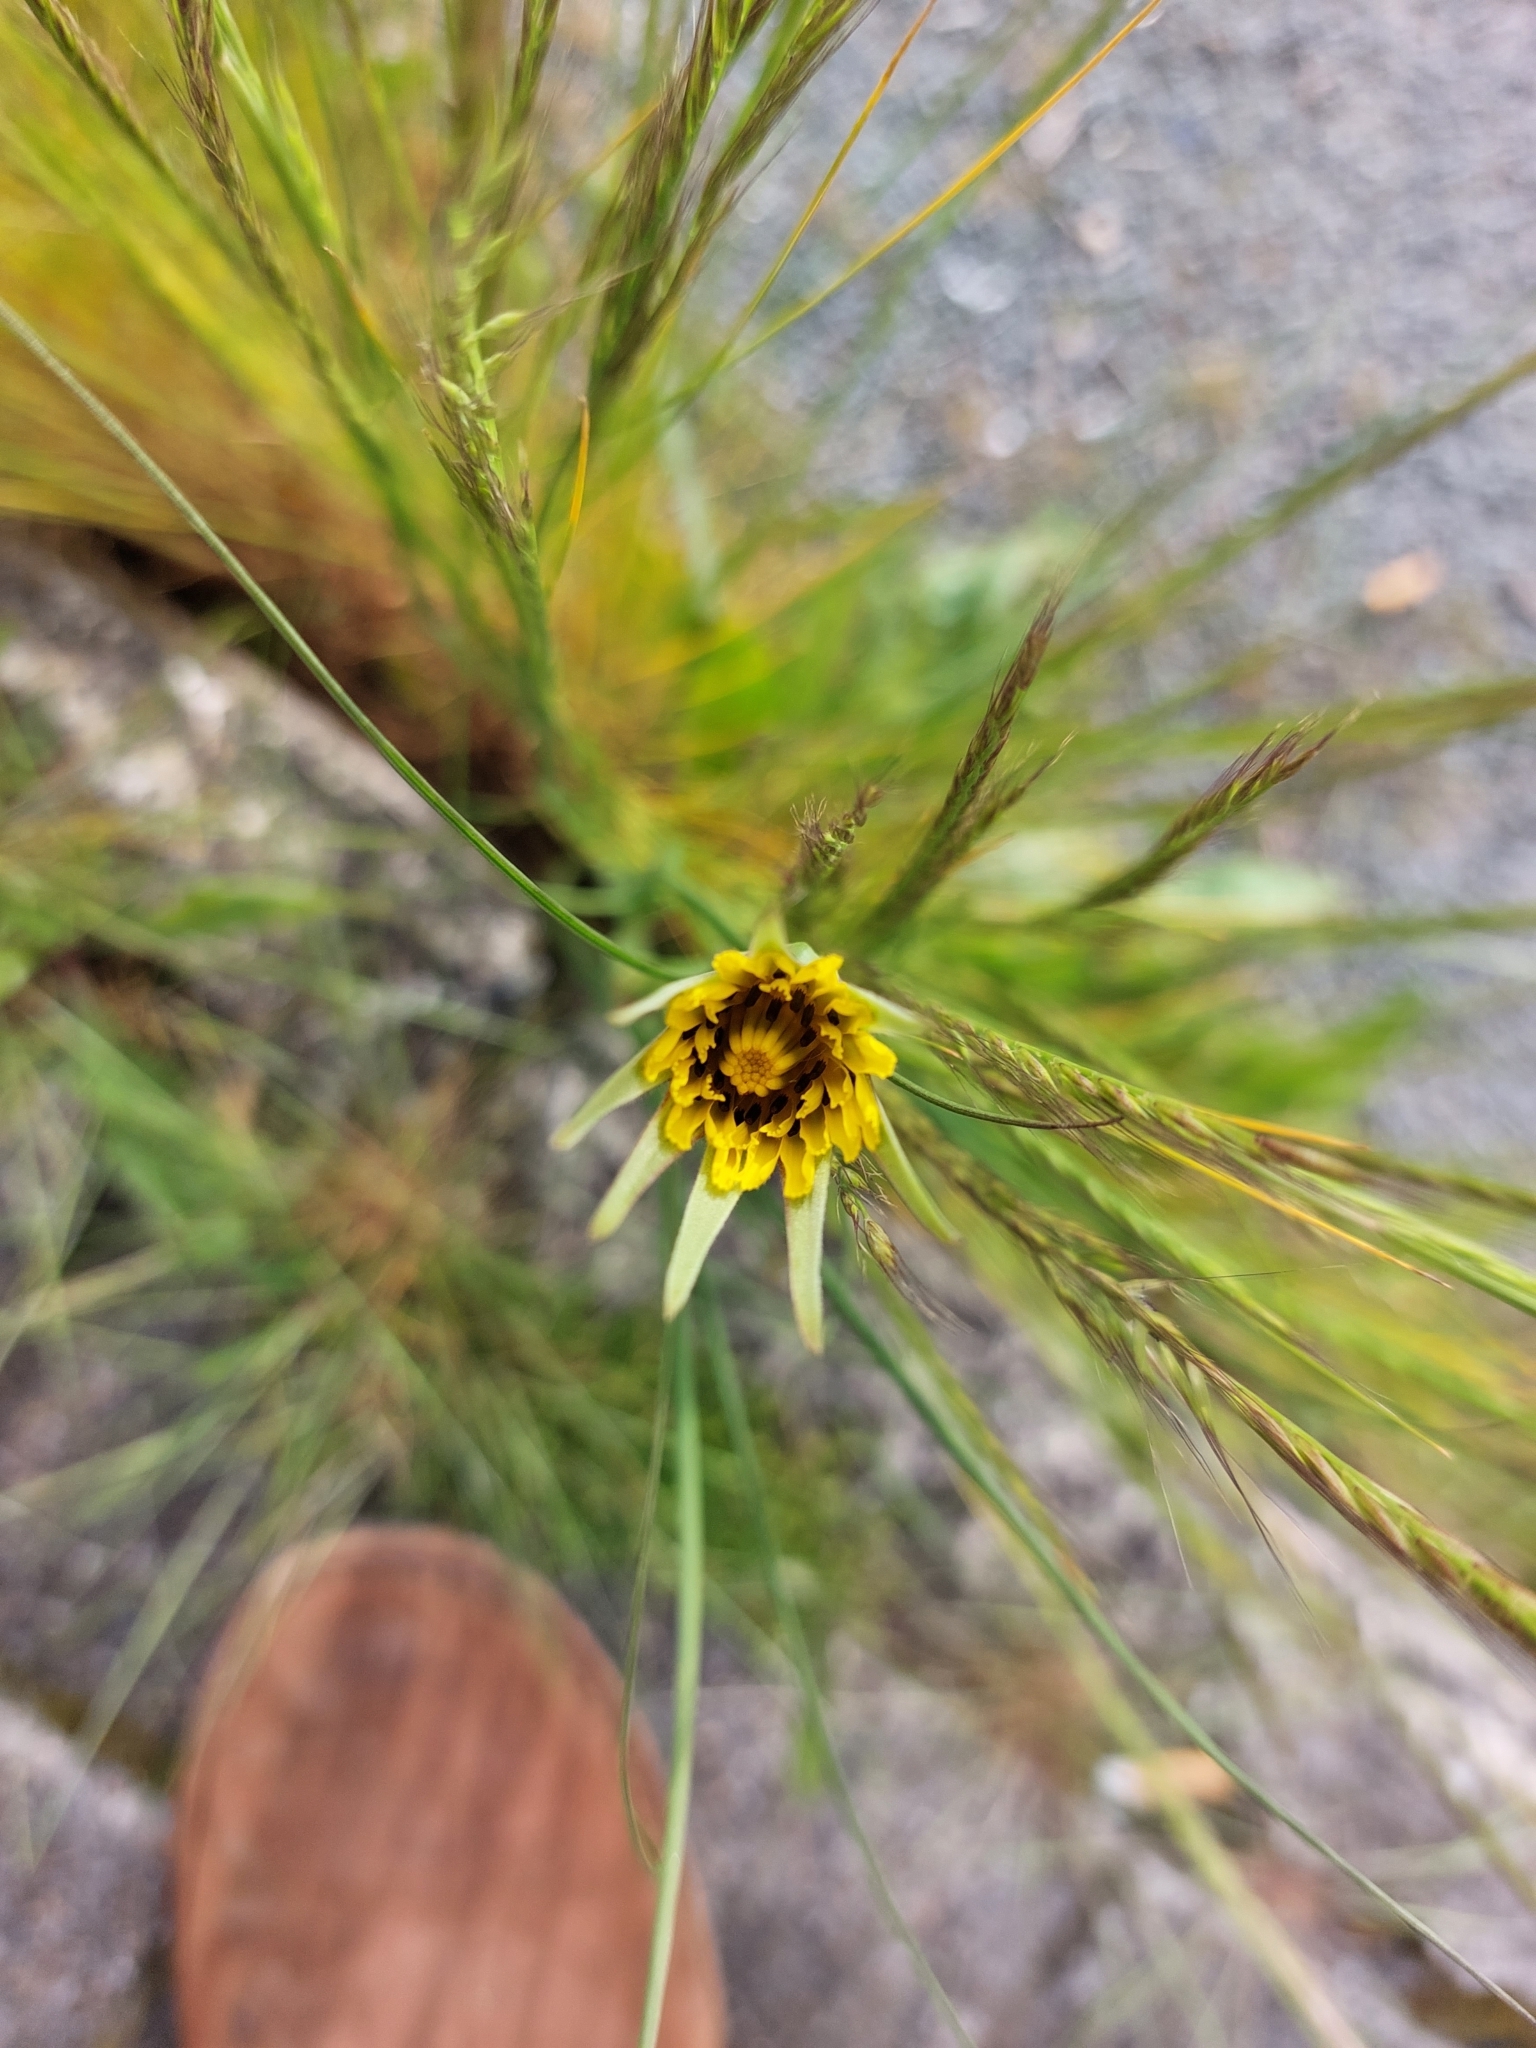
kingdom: Plantae
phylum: Tracheophyta
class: Magnoliopsida
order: Asterales
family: Asteraceae
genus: Tragopogon
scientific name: Tragopogon pratensis
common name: Goat's-beard
